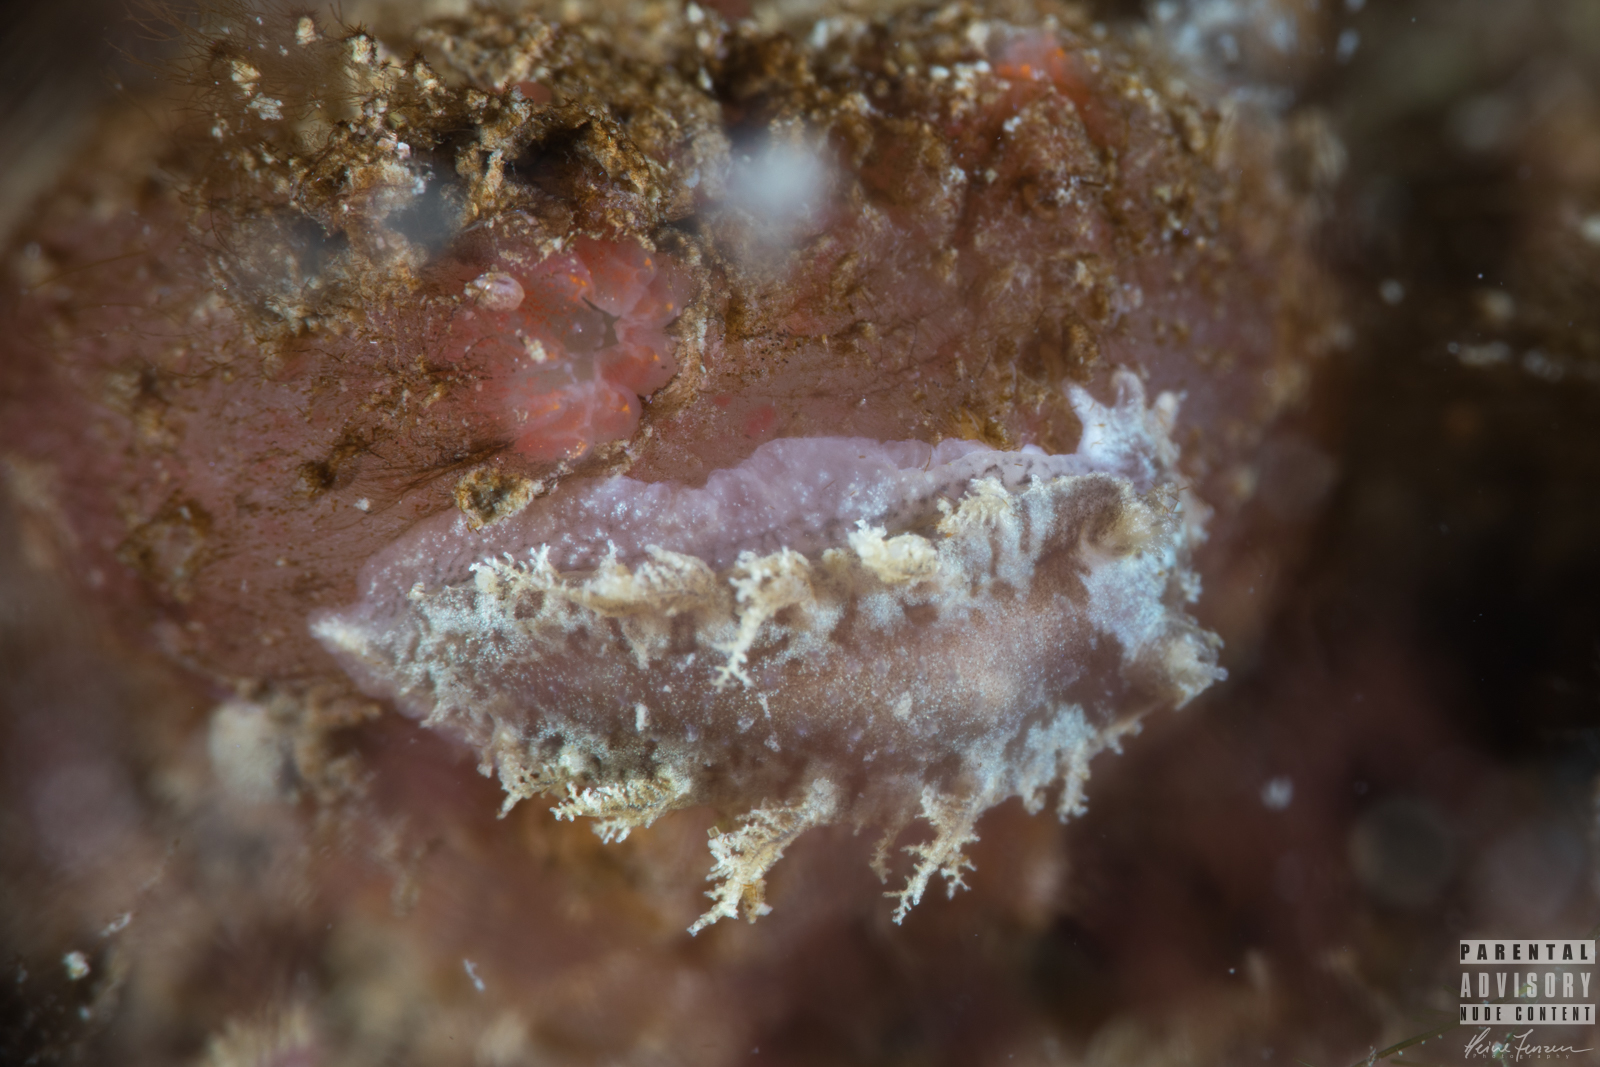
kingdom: Animalia
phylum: Mollusca
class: Gastropoda
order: Nudibranchia
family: Tritoniidae
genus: Duvaucelia
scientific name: Duvaucelia plebeia
